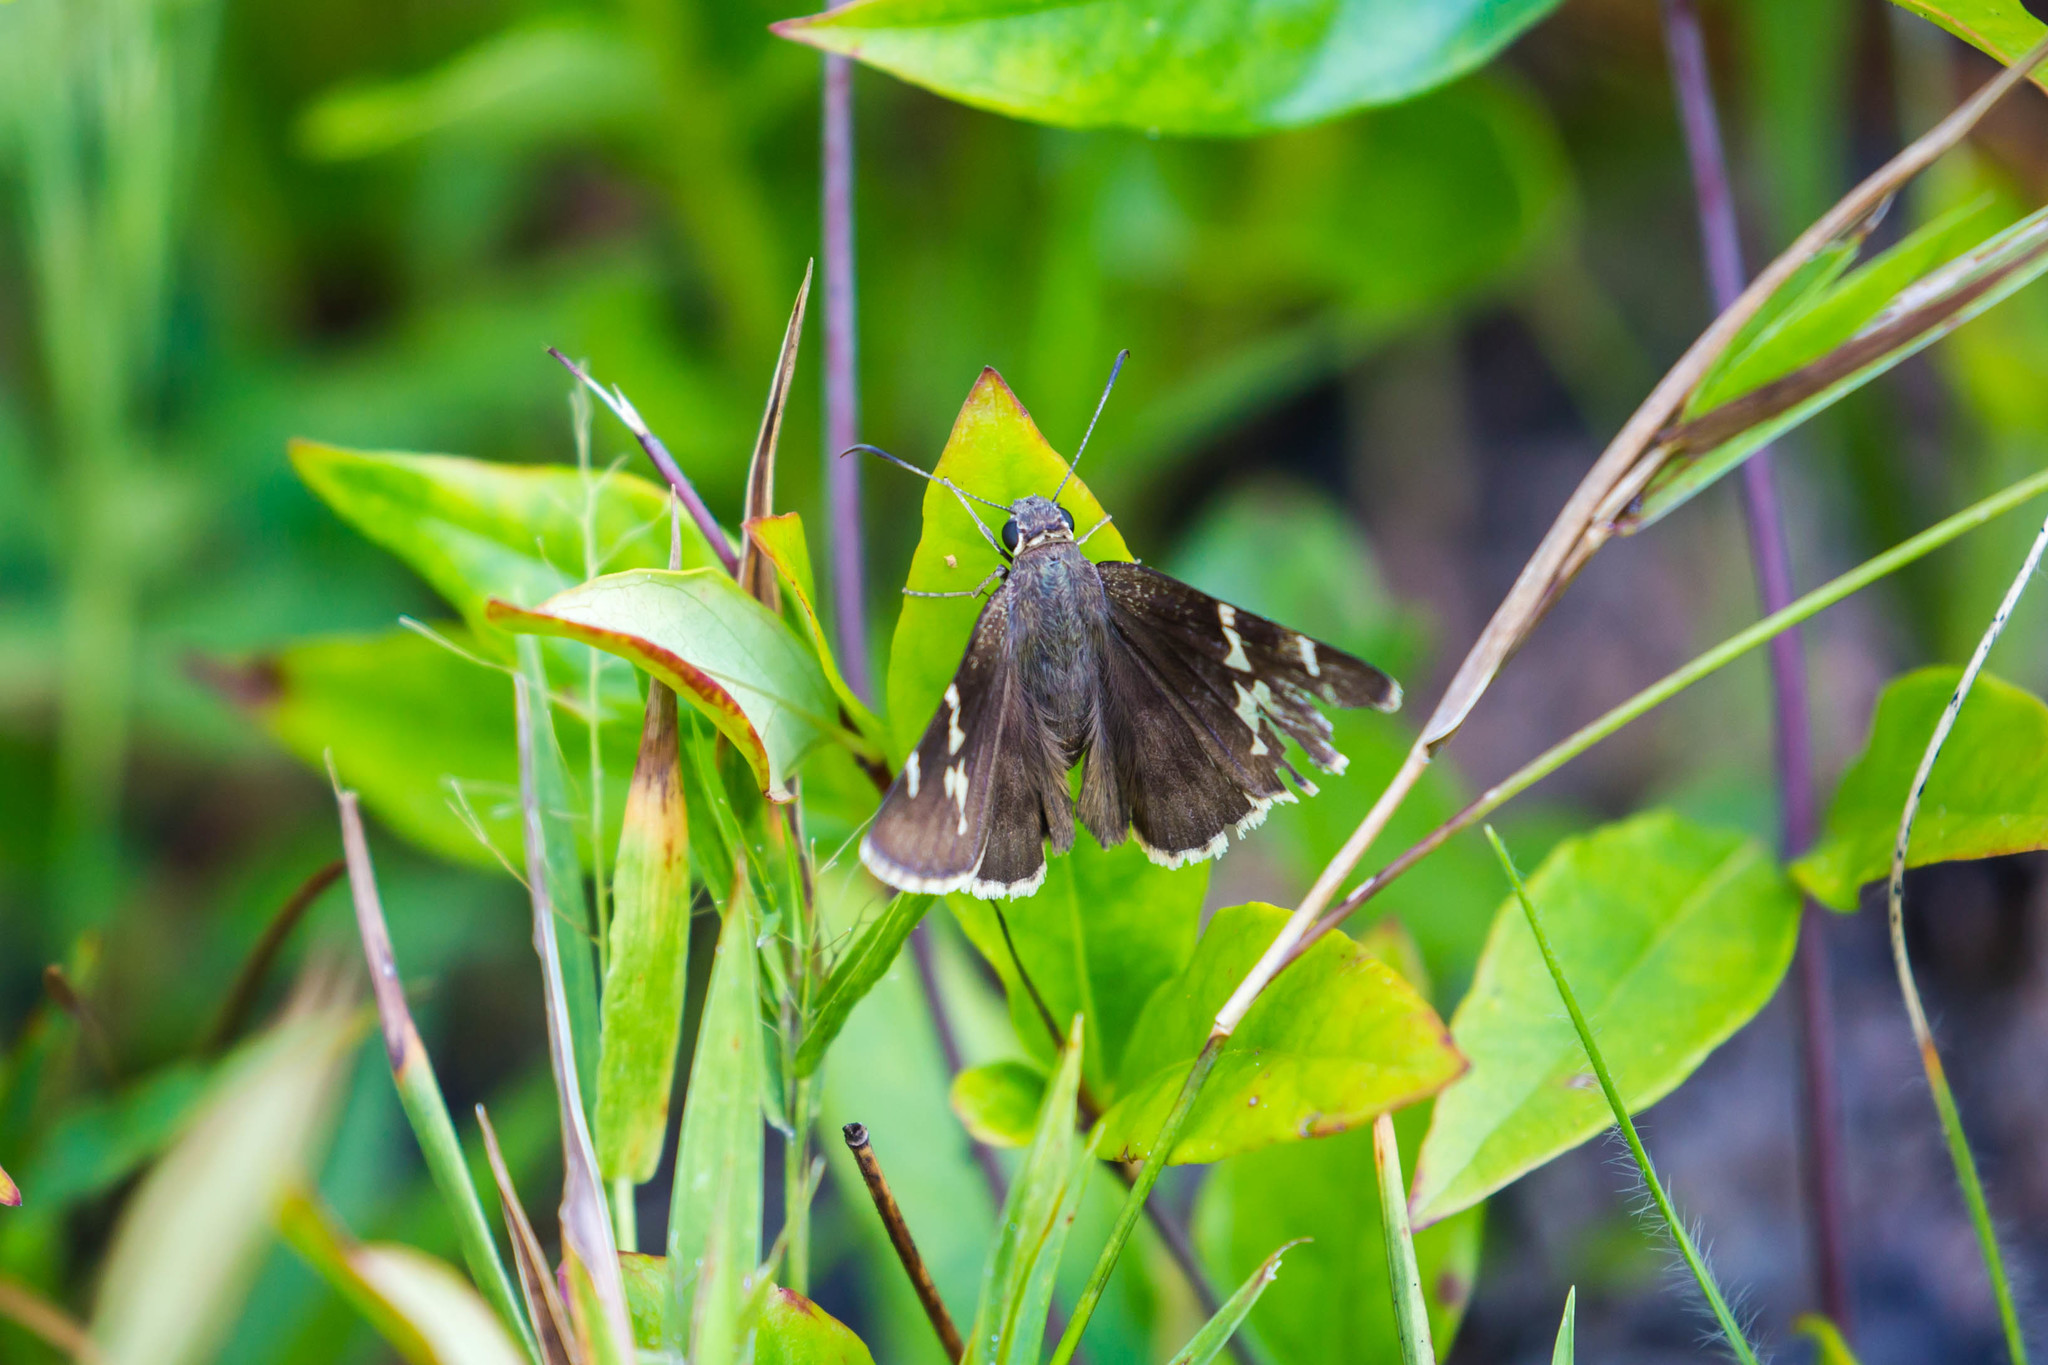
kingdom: Animalia
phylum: Arthropoda
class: Insecta
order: Lepidoptera
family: Hesperiidae
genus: Thorybes
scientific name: Thorybes daunus
